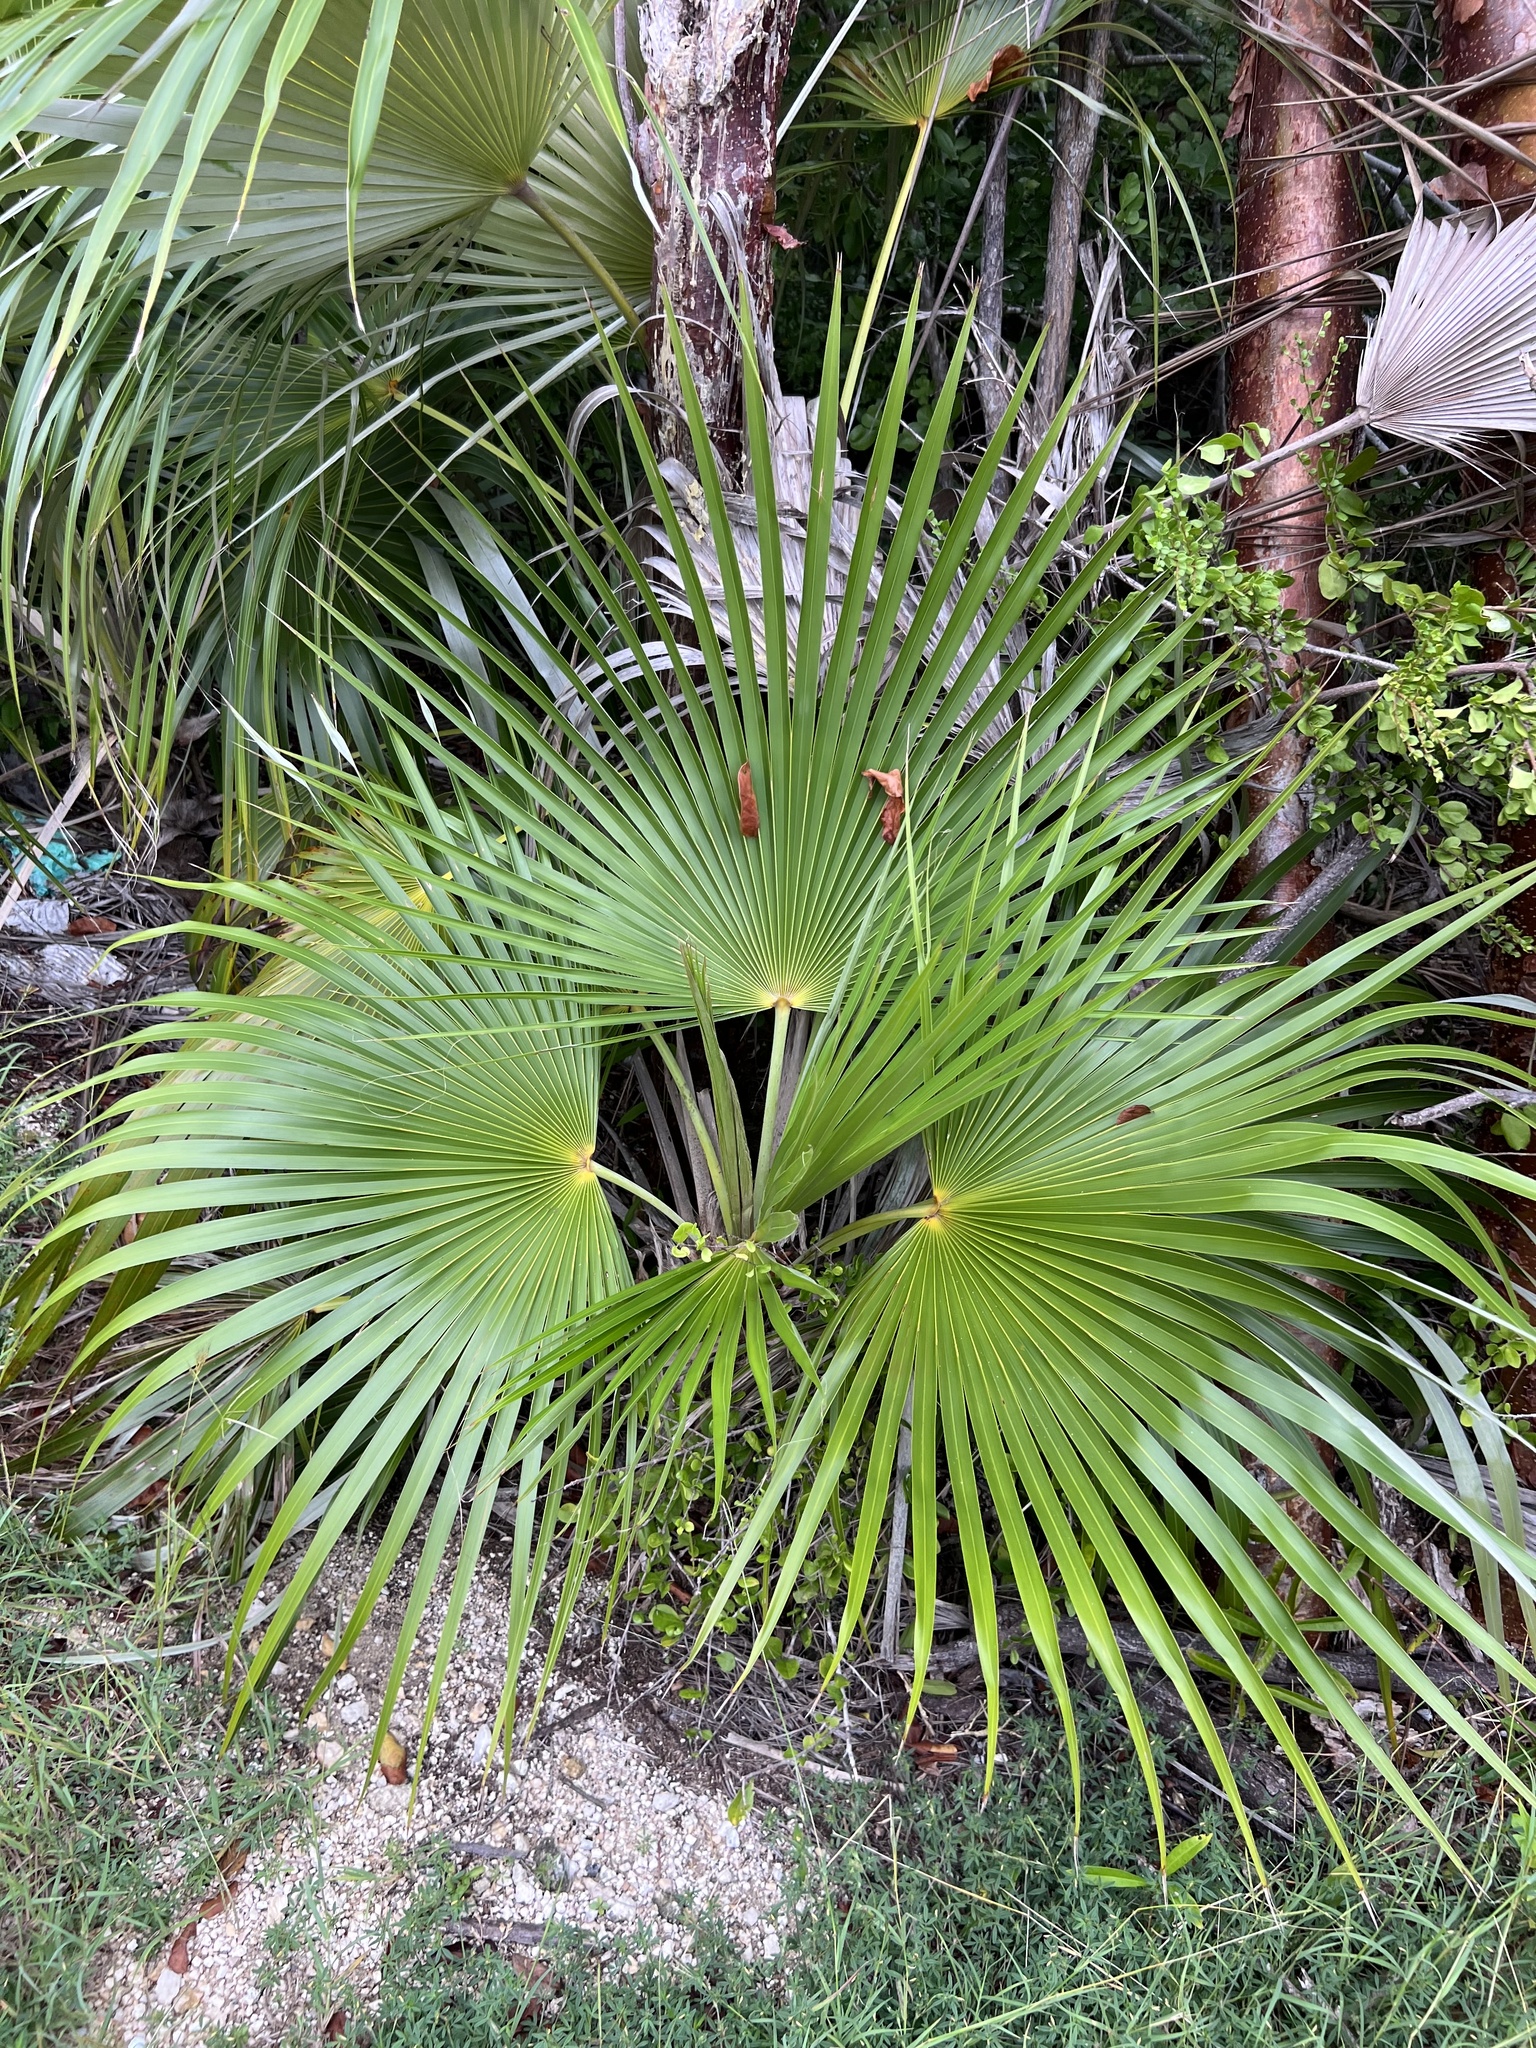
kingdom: Plantae
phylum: Tracheophyta
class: Liliopsida
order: Arecales
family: Arecaceae
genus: Coccothrinax
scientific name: Coccothrinax proctorii
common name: Silver palm
